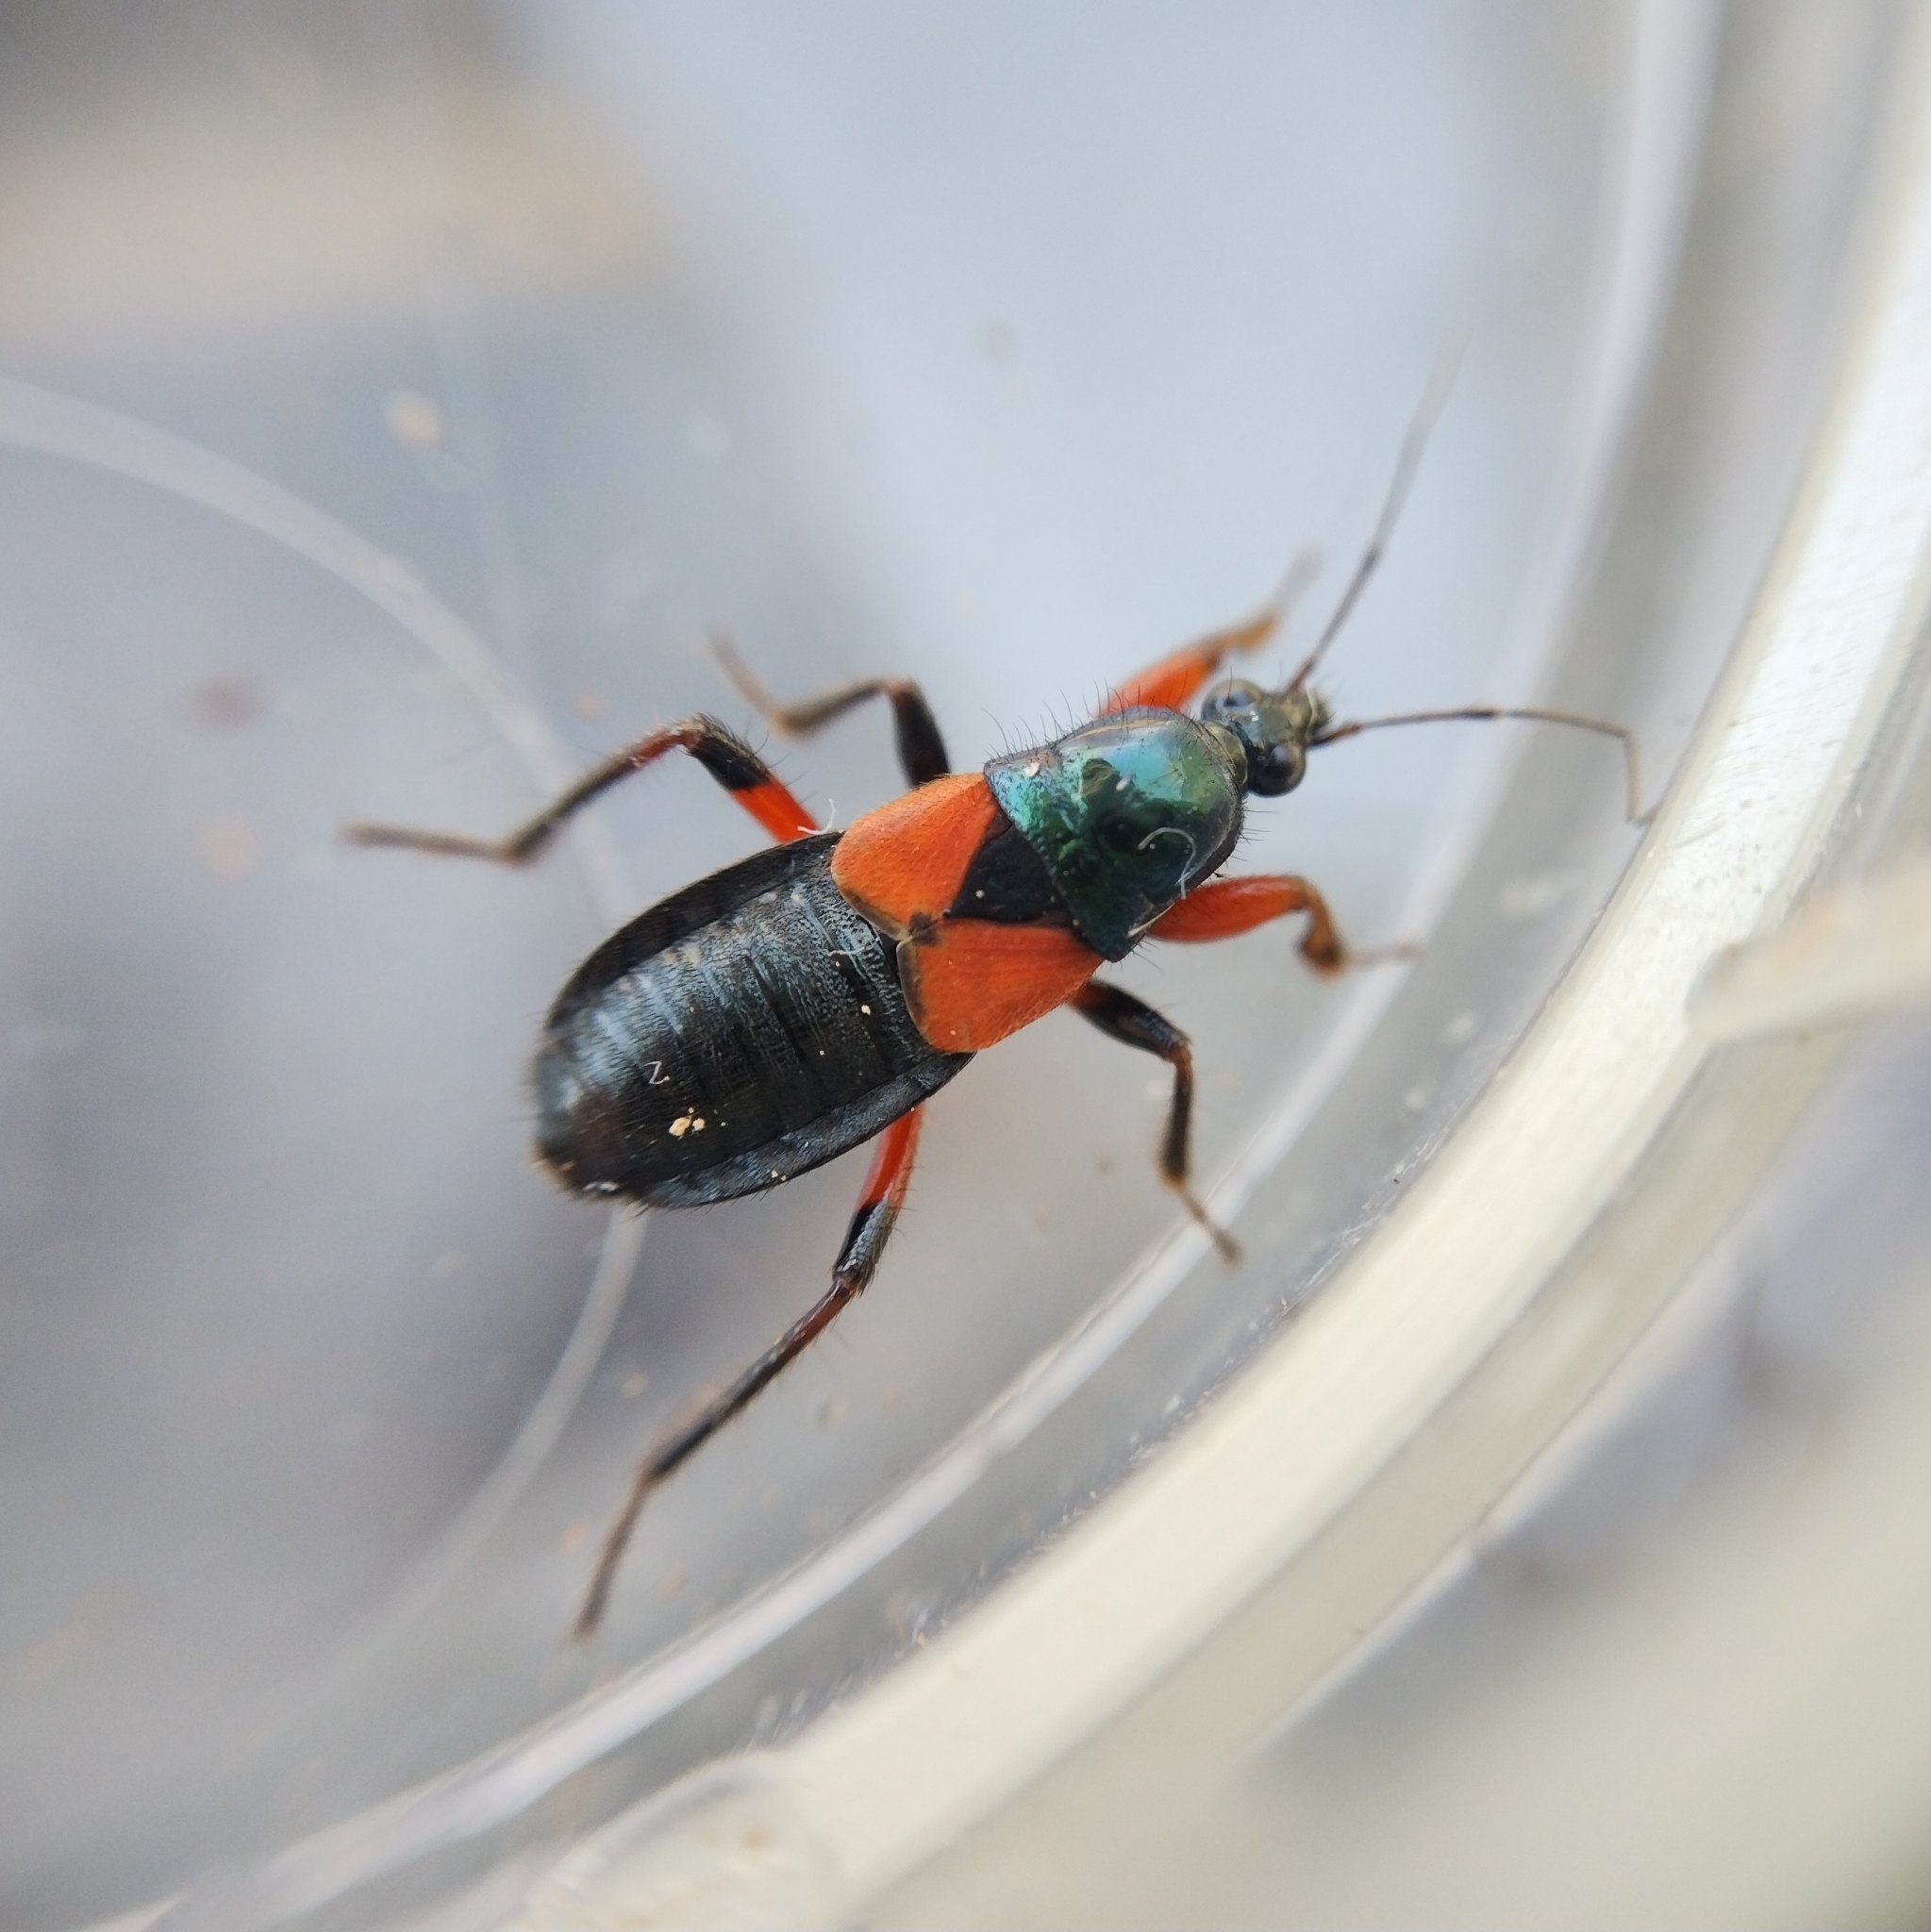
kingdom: Animalia
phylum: Arthropoda
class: Insecta
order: Hemiptera
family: Nabidae
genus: Prostemma
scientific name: Prostemma aeneicolle
